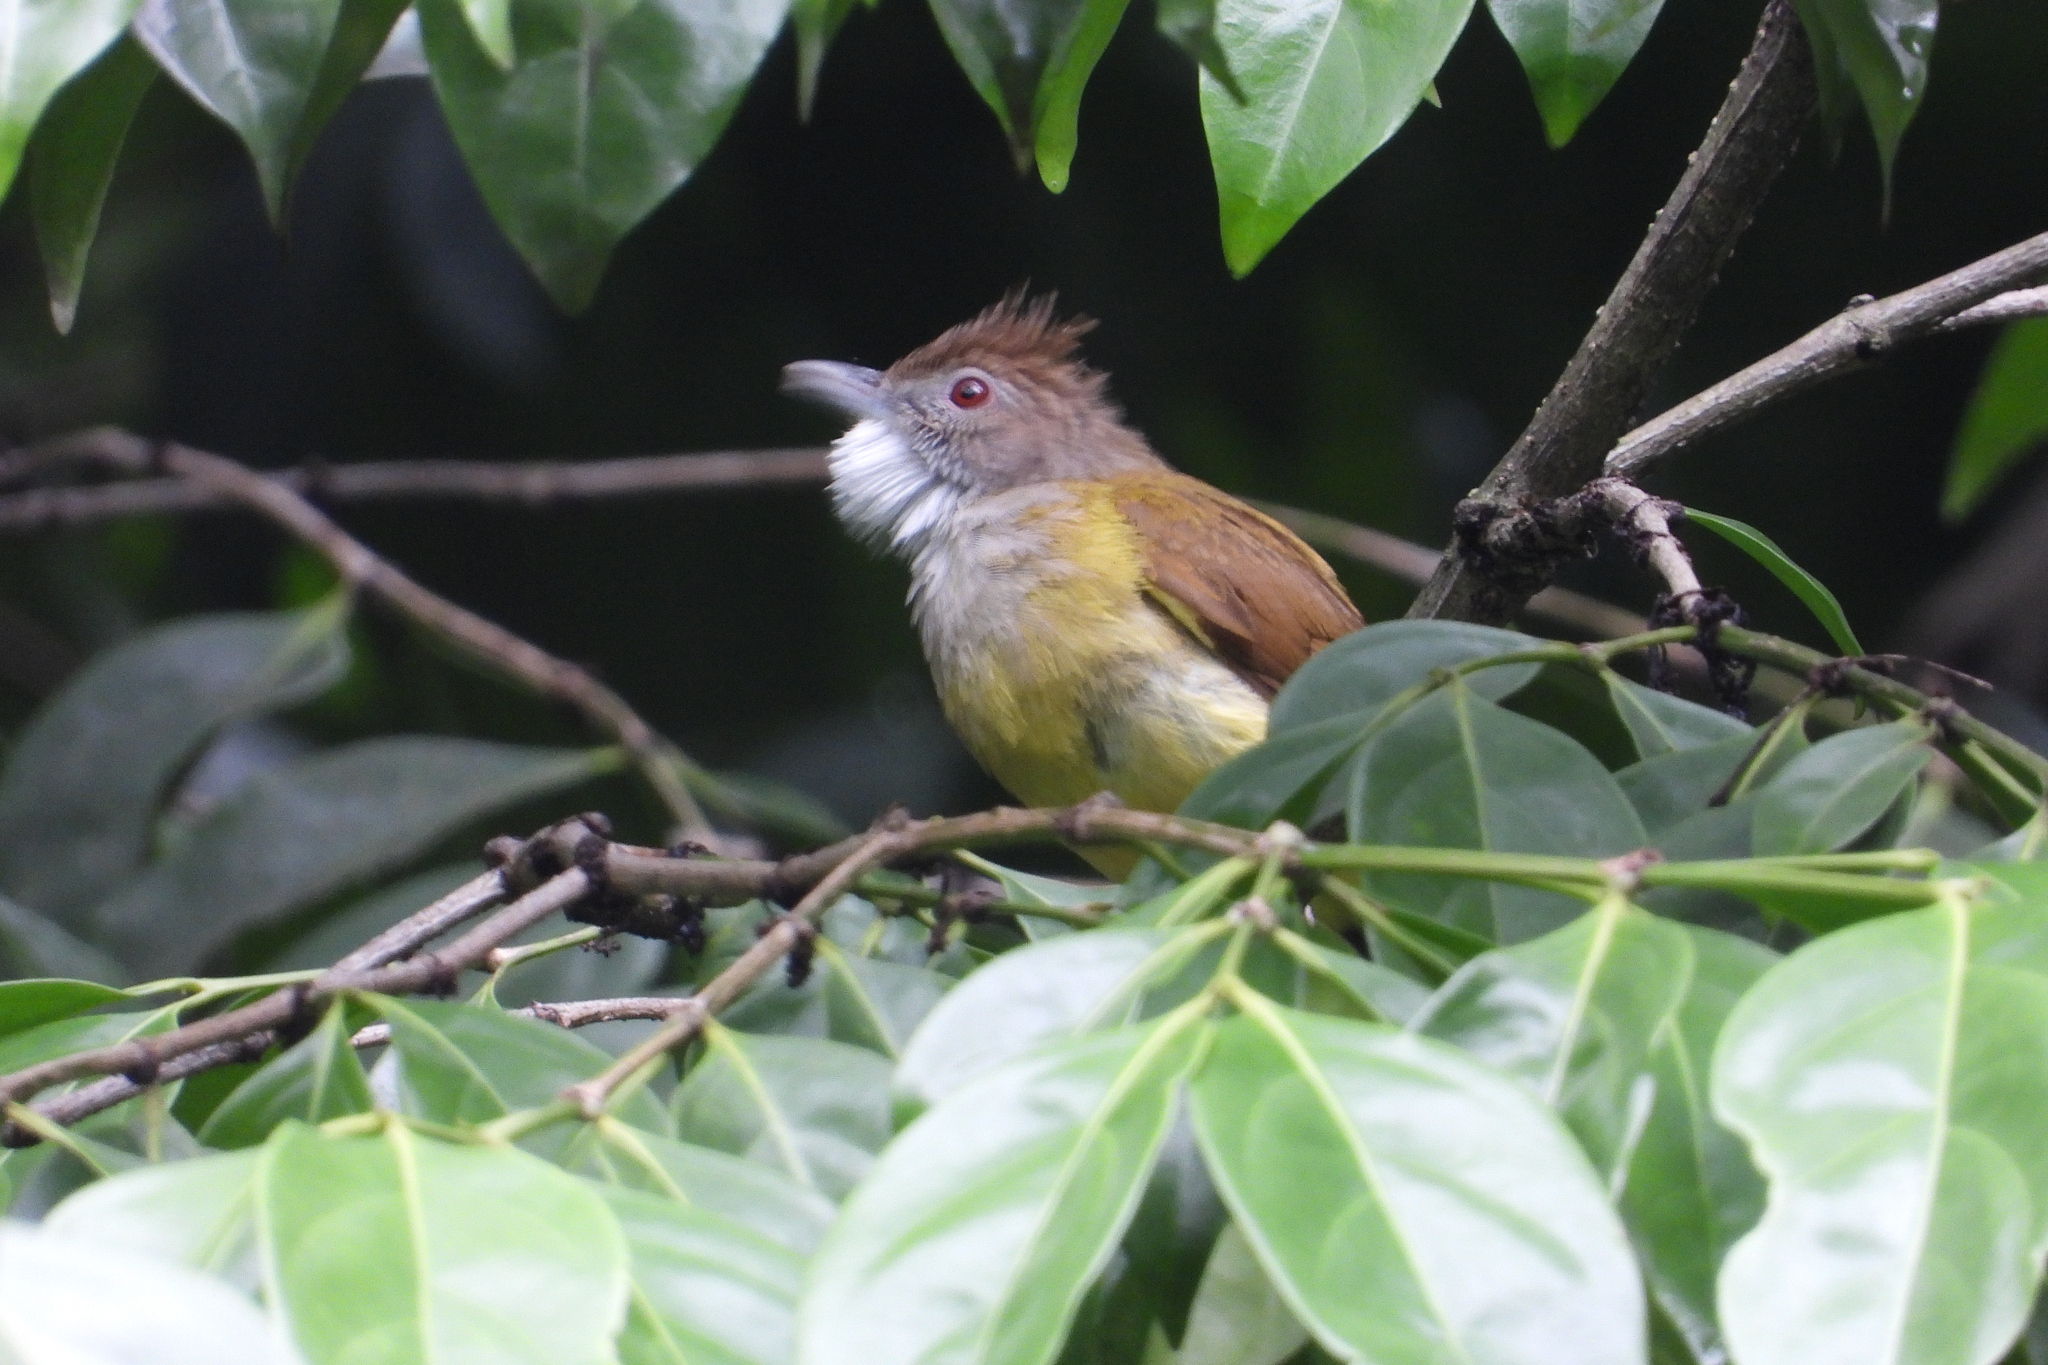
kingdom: Animalia
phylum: Chordata
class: Aves
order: Passeriformes
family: Pycnonotidae
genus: Alophoixus
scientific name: Alophoixus bres
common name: Gray-cheeked bulbul
